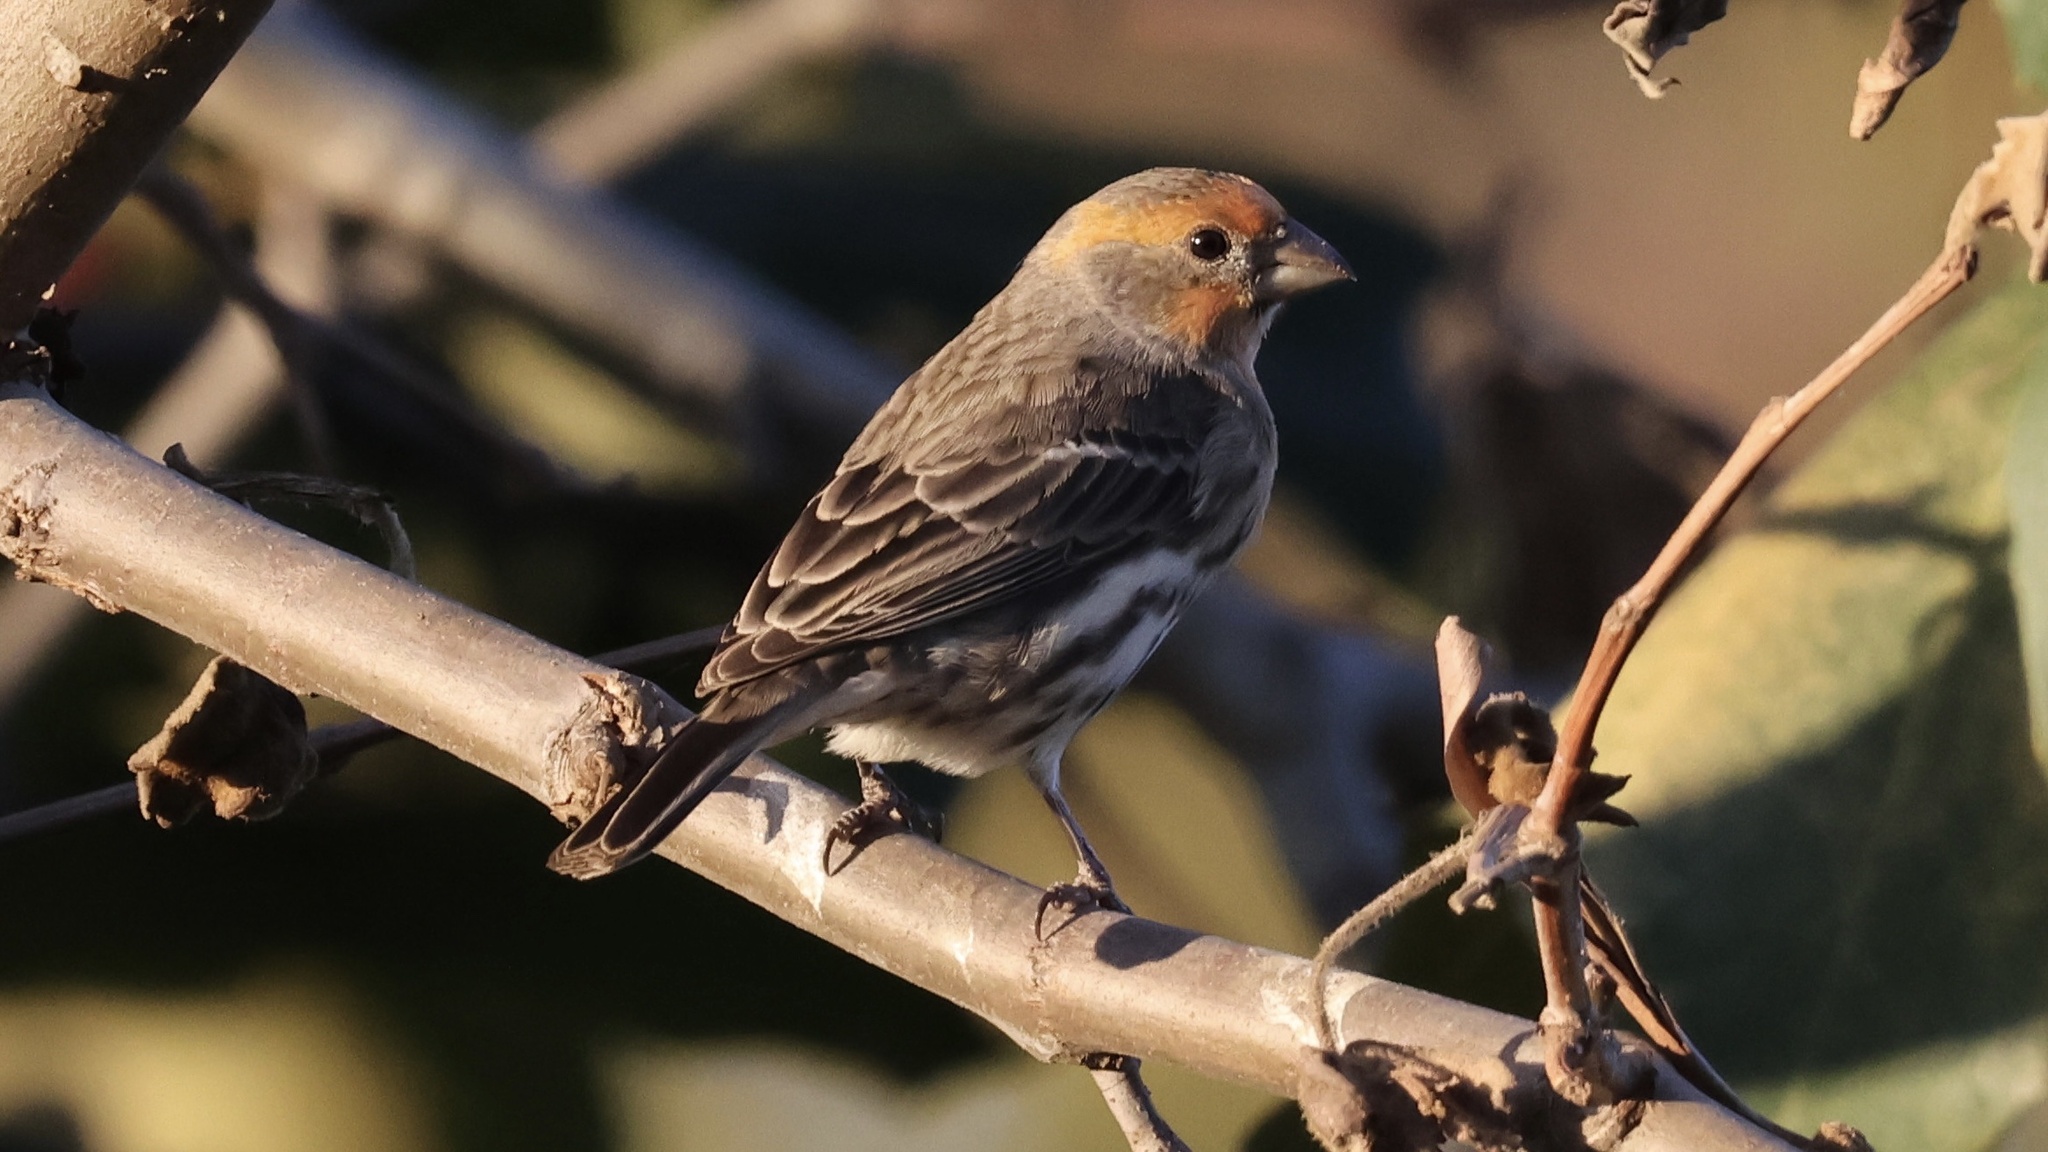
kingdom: Animalia
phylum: Chordata
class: Aves
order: Passeriformes
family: Fringillidae
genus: Haemorhous
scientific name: Haemorhous mexicanus
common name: House finch
